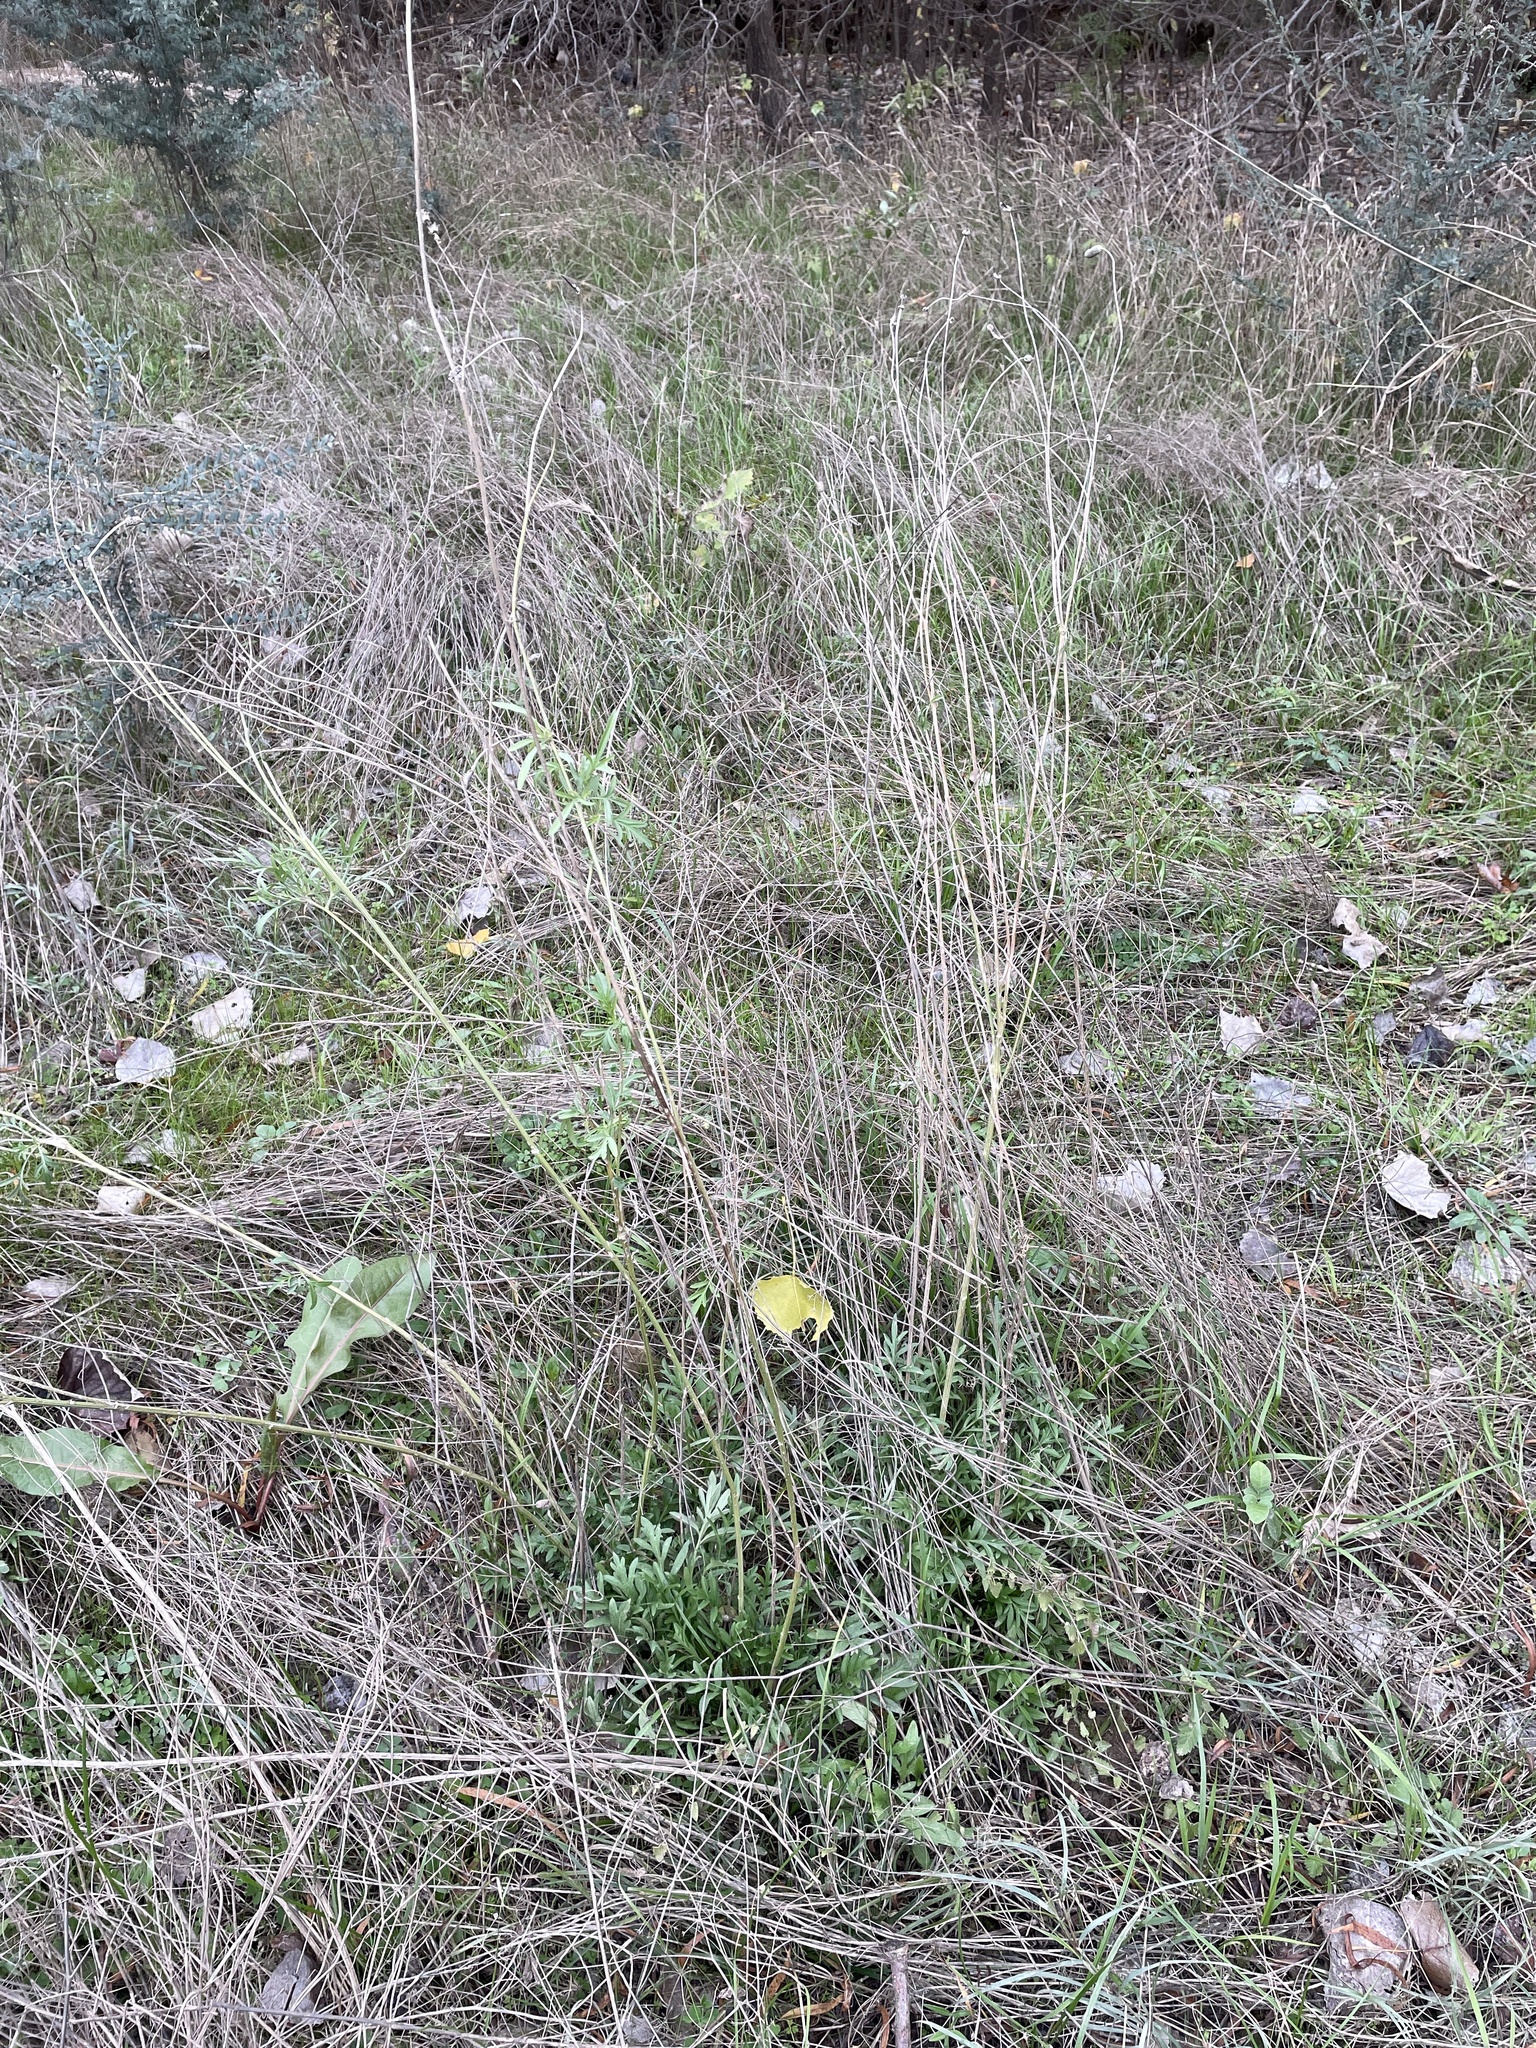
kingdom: Plantae
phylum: Tracheophyta
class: Magnoliopsida
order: Asterales
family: Asteraceae
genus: Ratibida
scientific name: Ratibida columnifera
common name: Prairie coneflower
